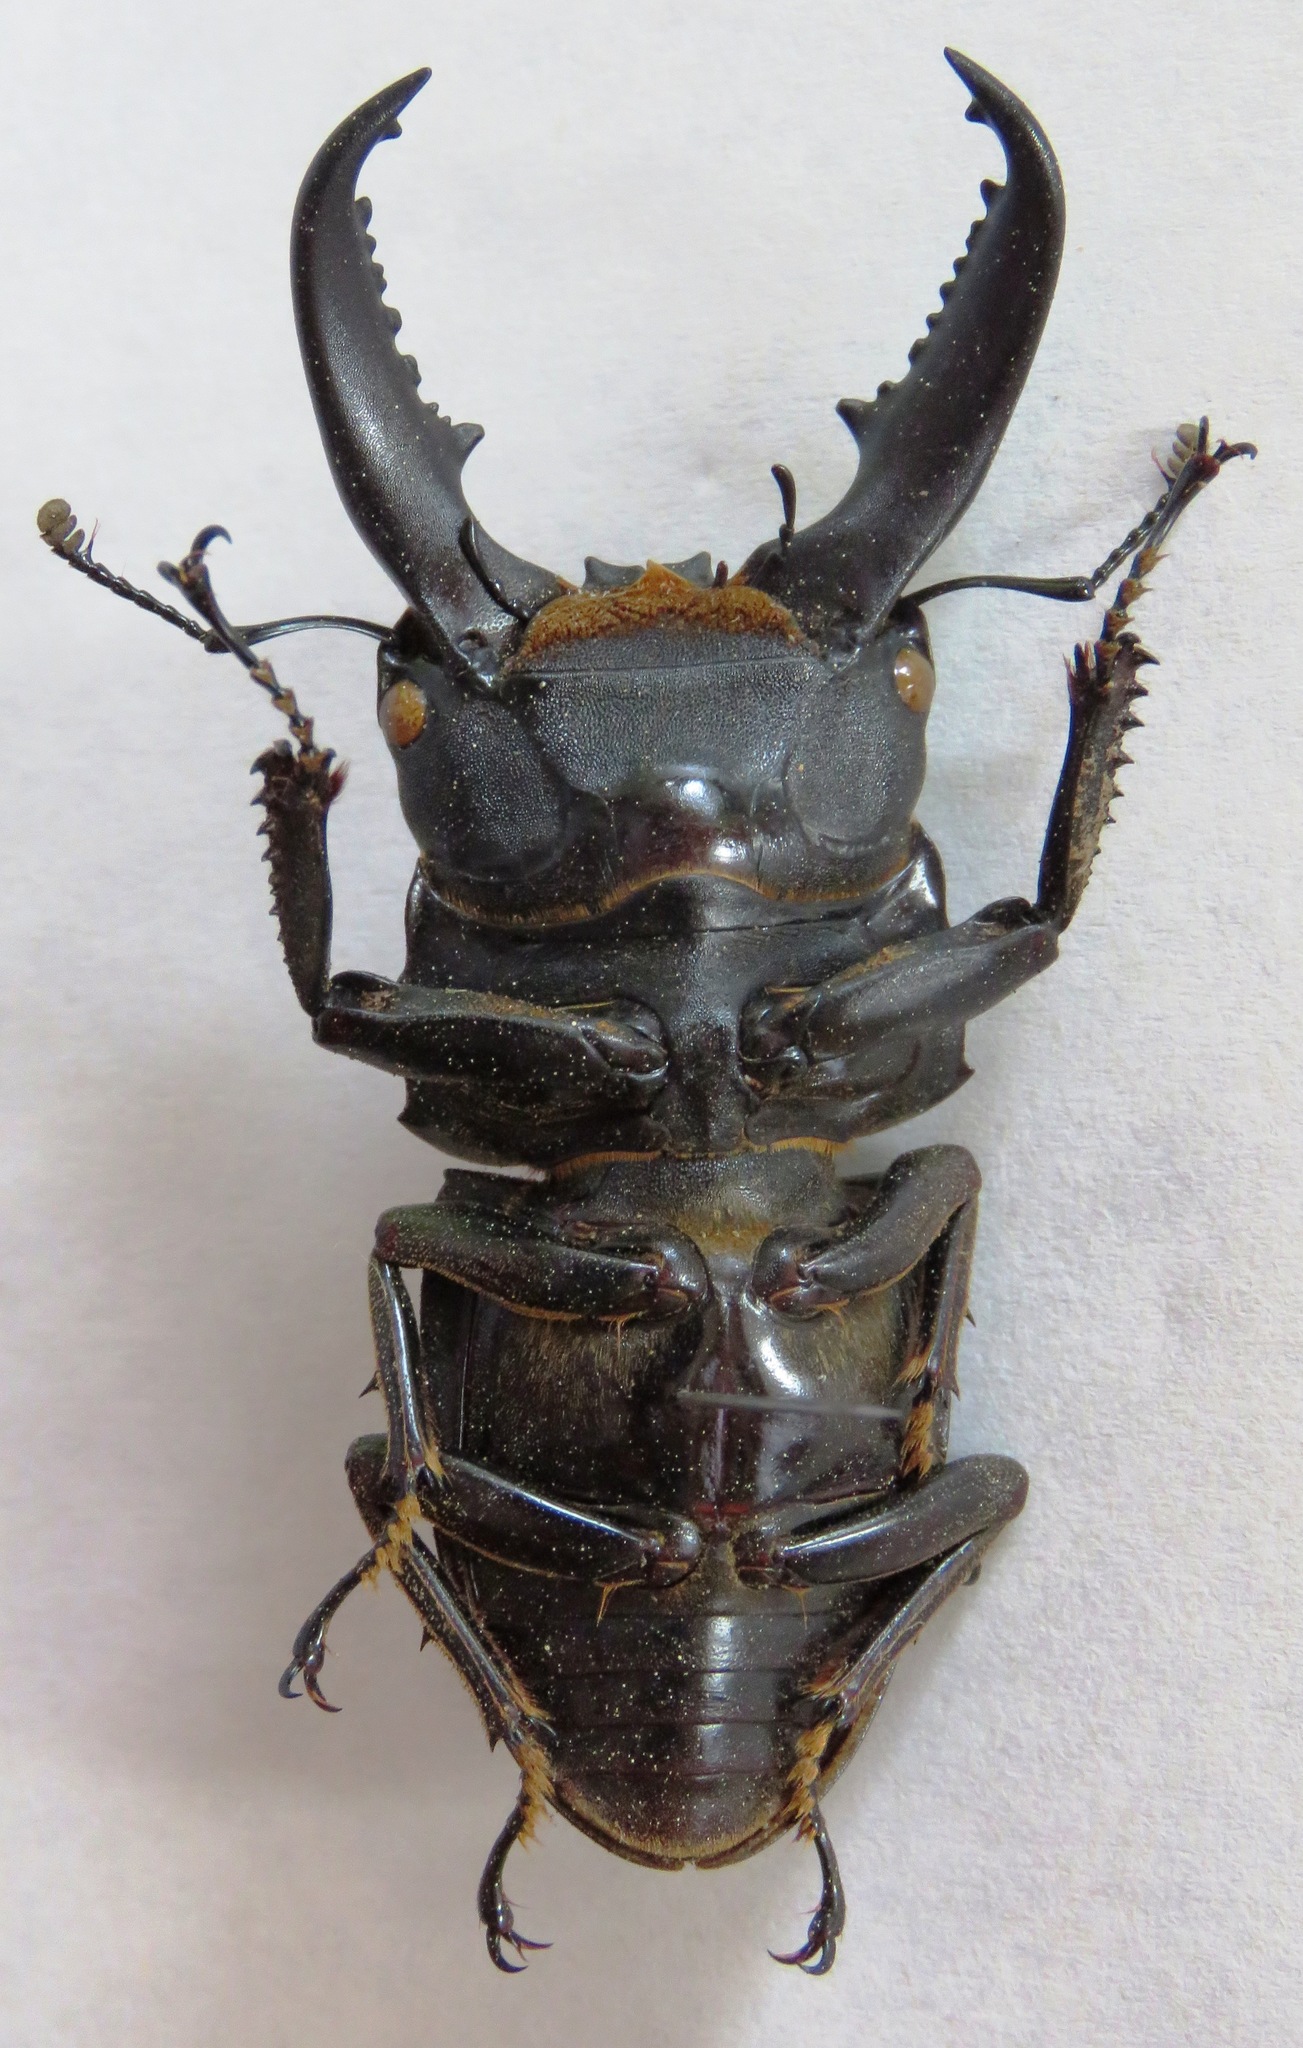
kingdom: Animalia
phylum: Arthropoda
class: Insecta
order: Coleoptera
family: Lucanidae
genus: Serrognathus
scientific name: Serrognathus titanus
